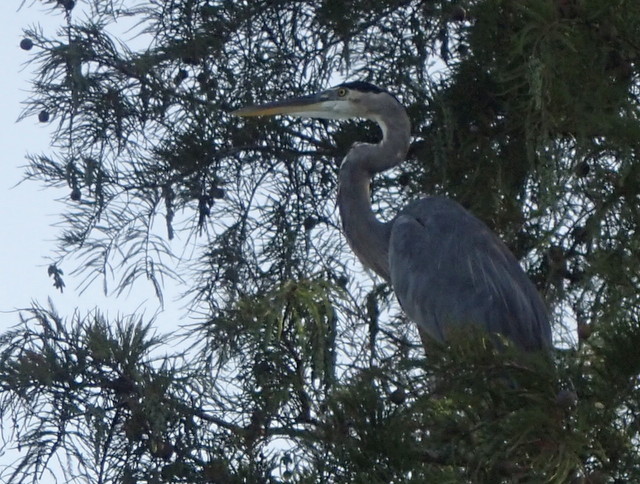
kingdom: Animalia
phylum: Chordata
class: Aves
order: Pelecaniformes
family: Ardeidae
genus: Ardea
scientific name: Ardea herodias
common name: Great blue heron
